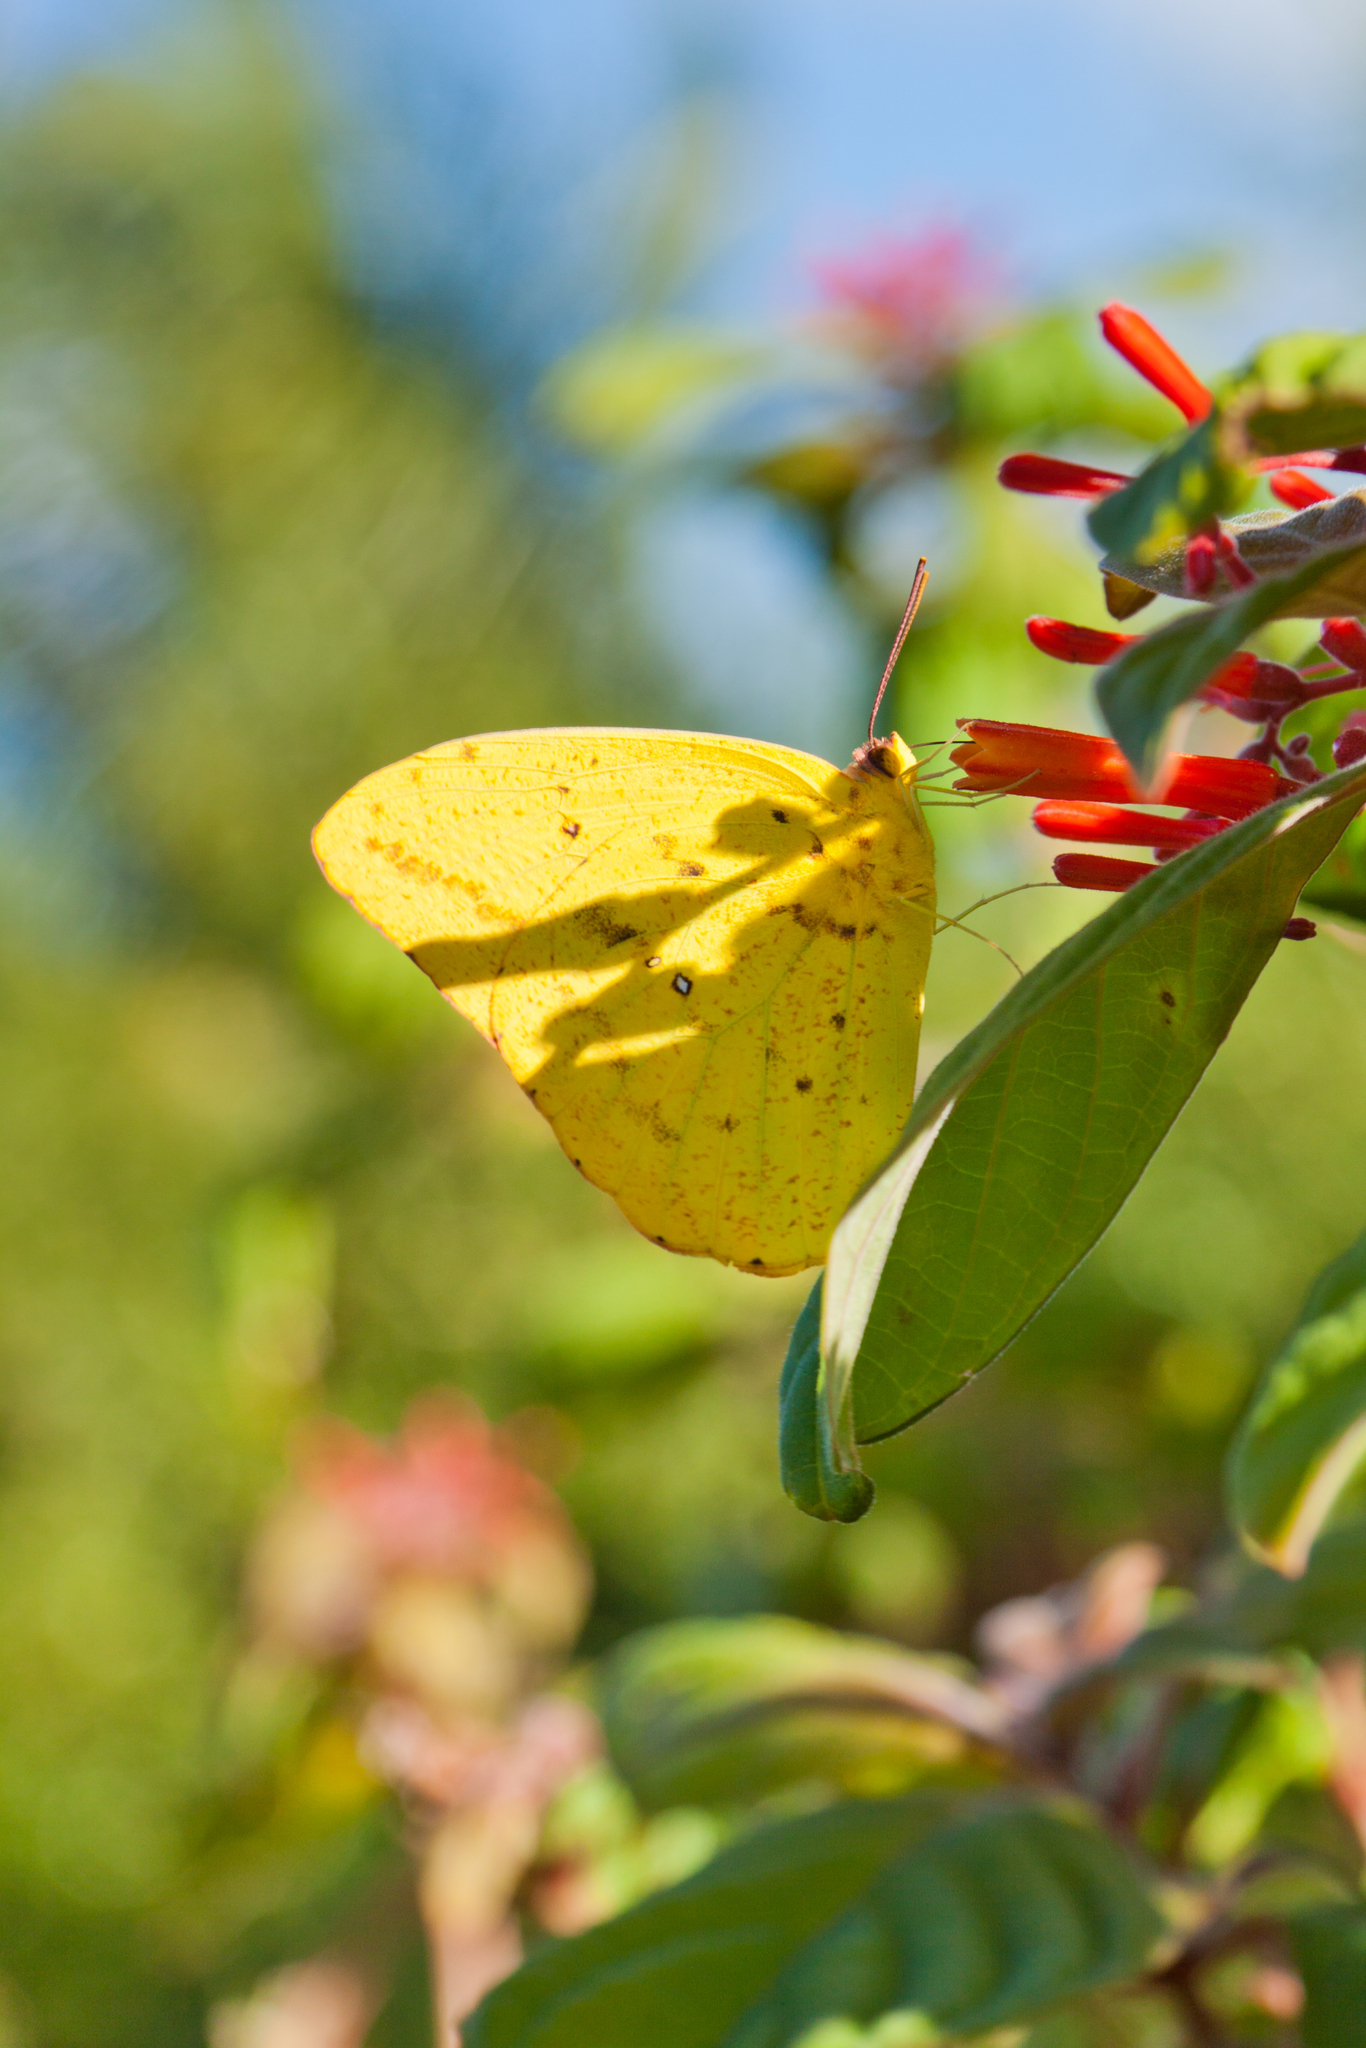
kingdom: Animalia
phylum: Arthropoda
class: Insecta
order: Lepidoptera
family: Pieridae
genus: Phoebis
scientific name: Phoebis agarithe
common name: Large orange sulphur
